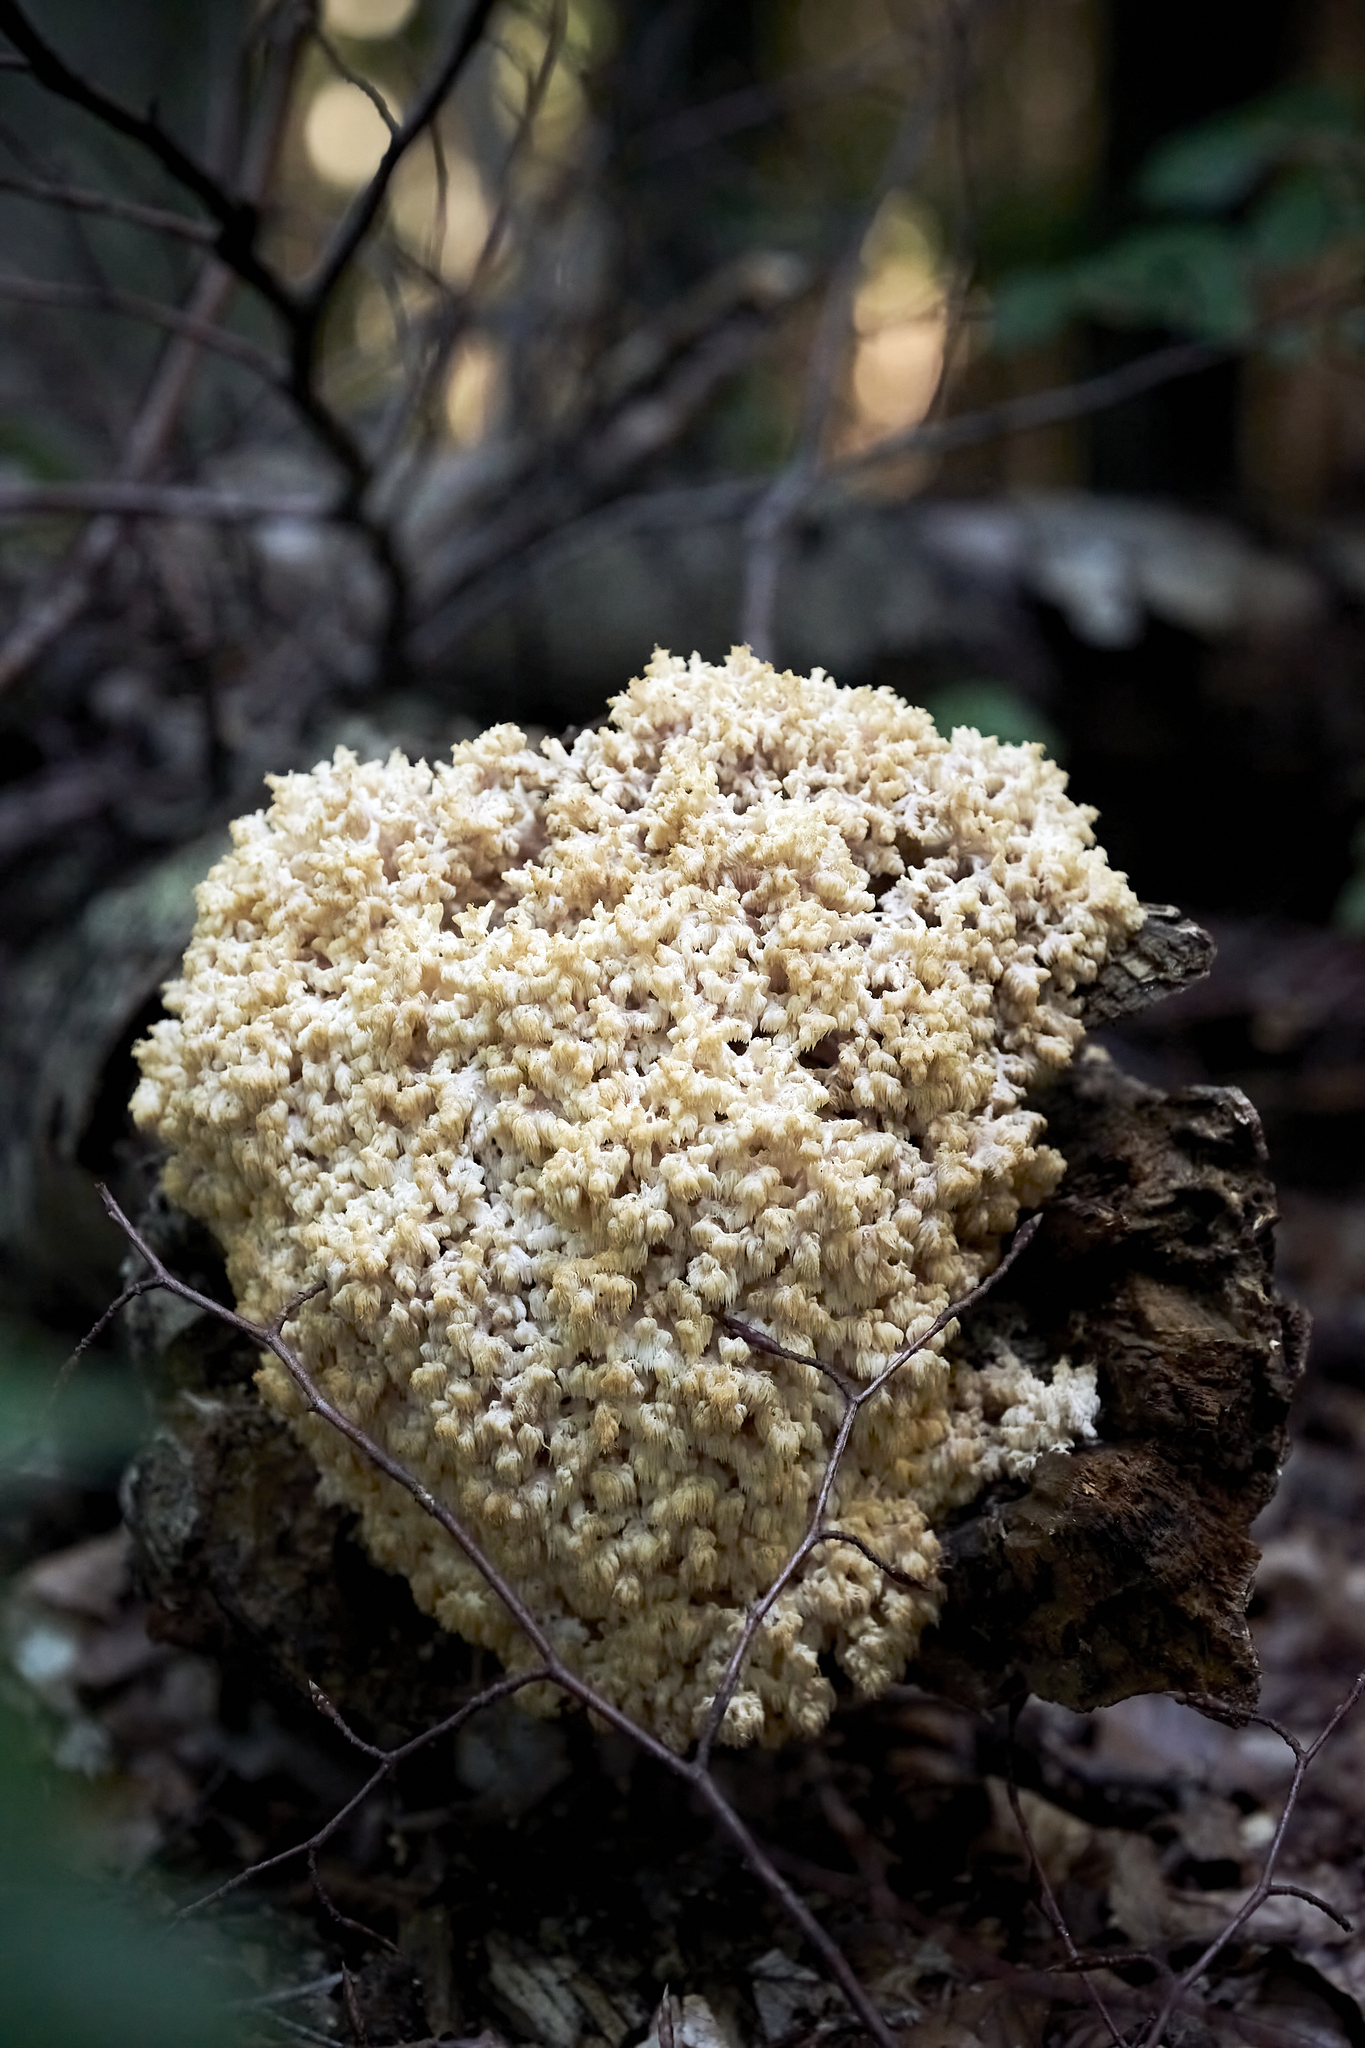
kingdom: Fungi
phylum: Basidiomycota
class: Agaricomycetes
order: Russulales
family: Hericiaceae
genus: Hericium
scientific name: Hericium coralloides
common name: Coral tooth
